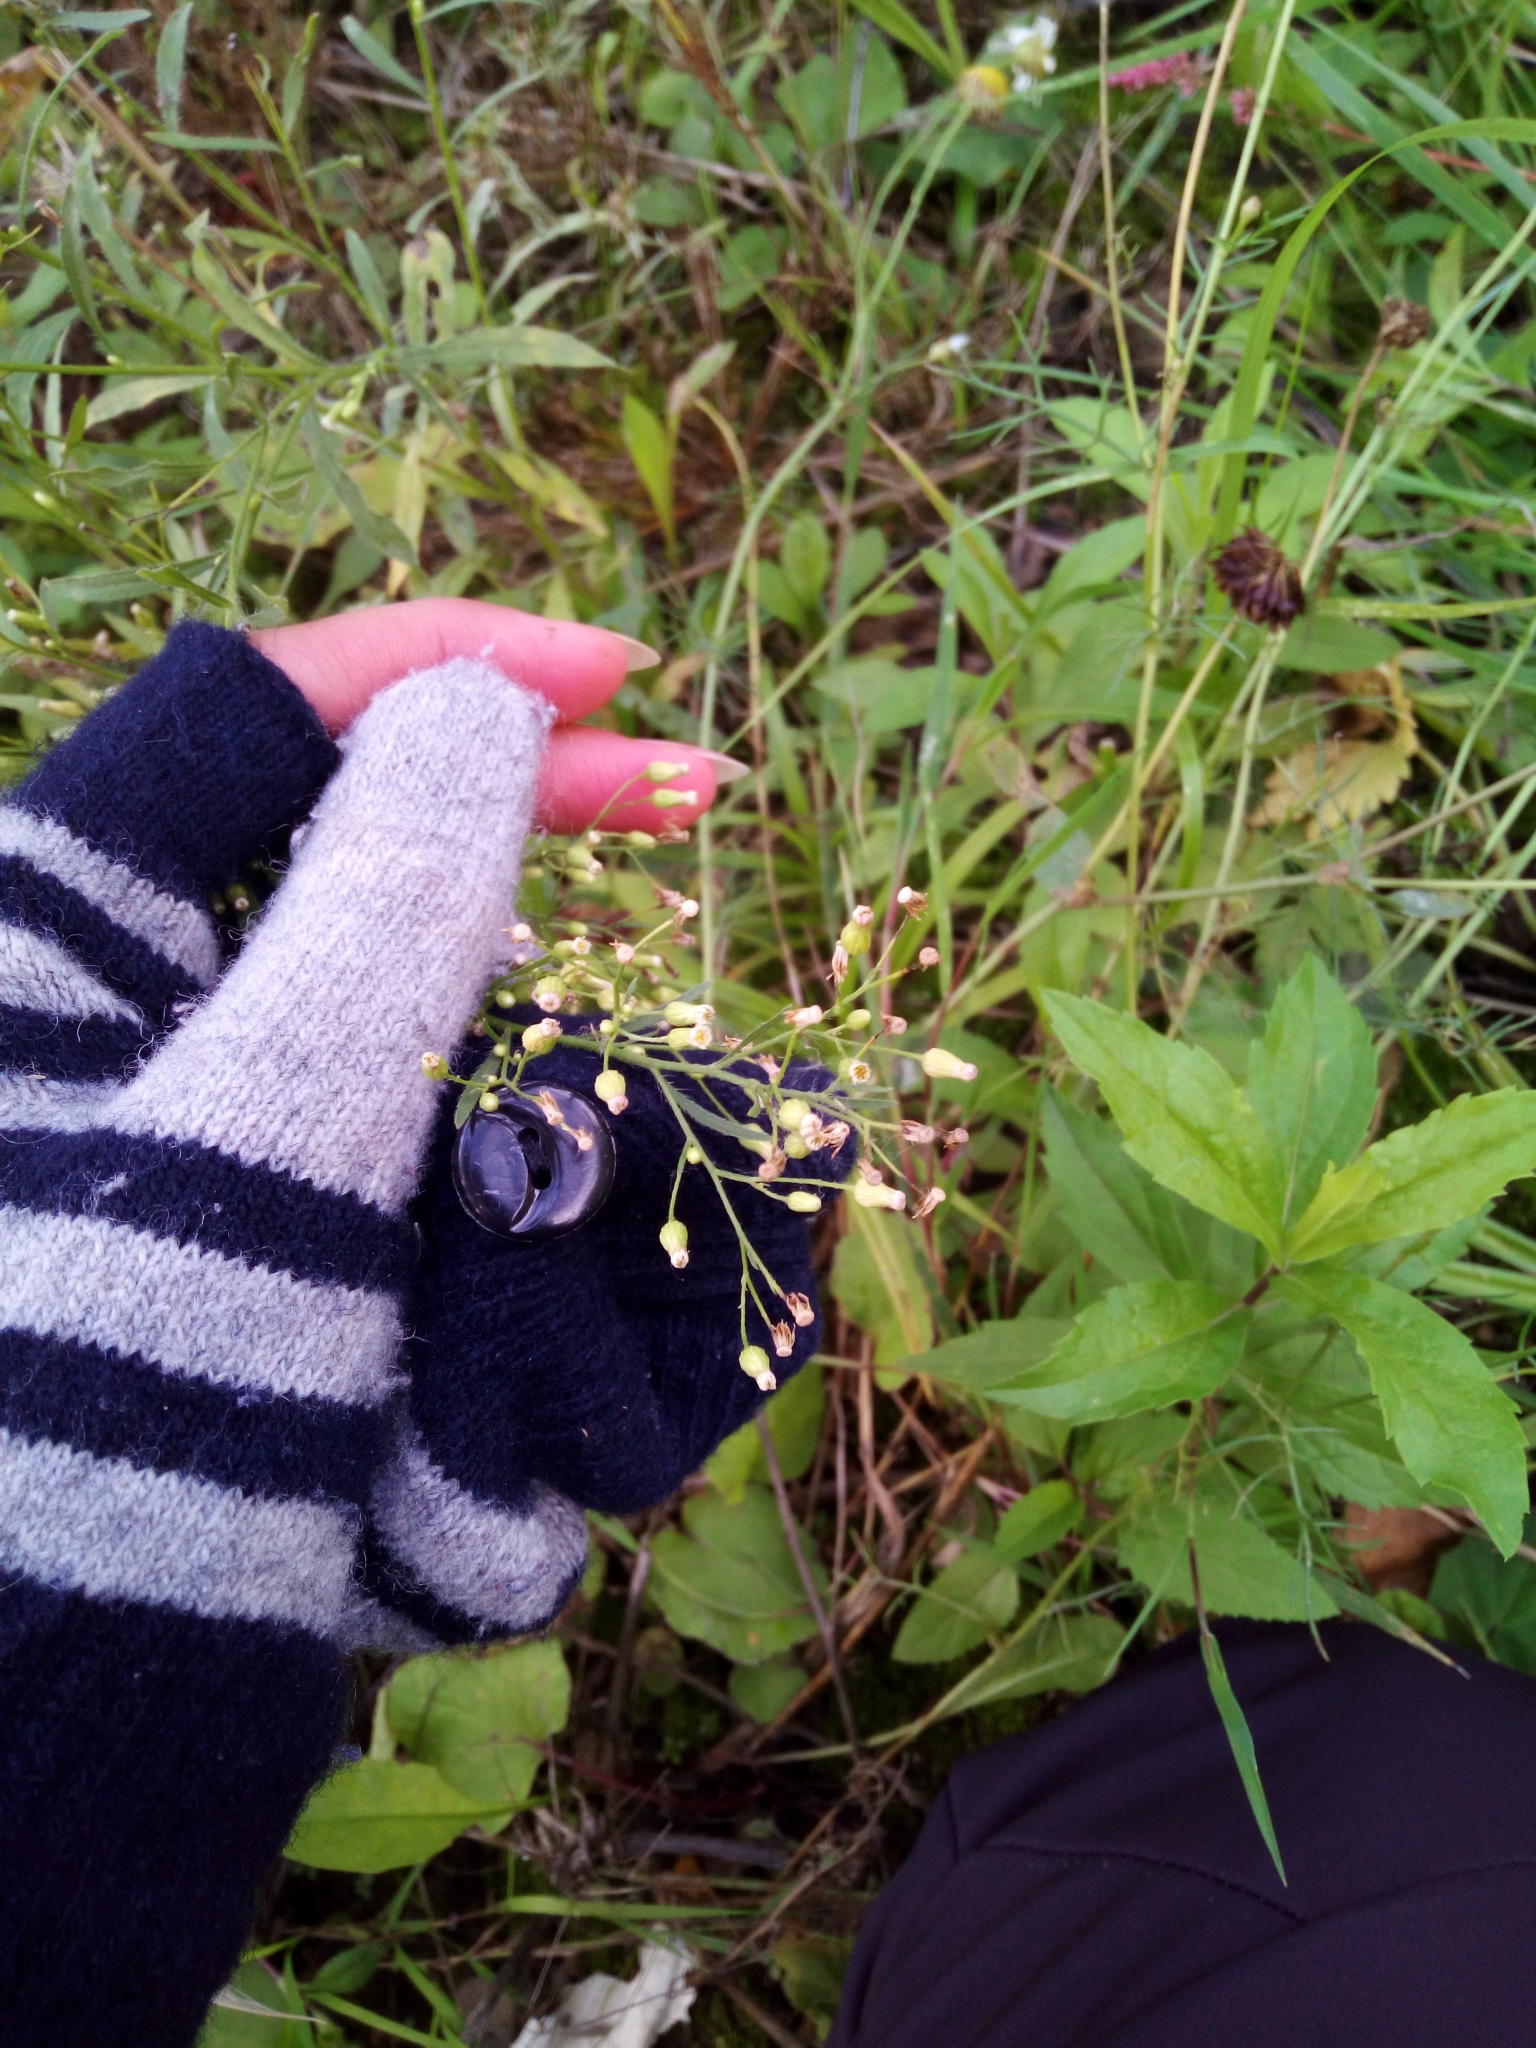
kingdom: Plantae
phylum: Tracheophyta
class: Magnoliopsida
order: Asterales
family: Asteraceae
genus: Erigeron
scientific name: Erigeron canadensis
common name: Canadian fleabane
